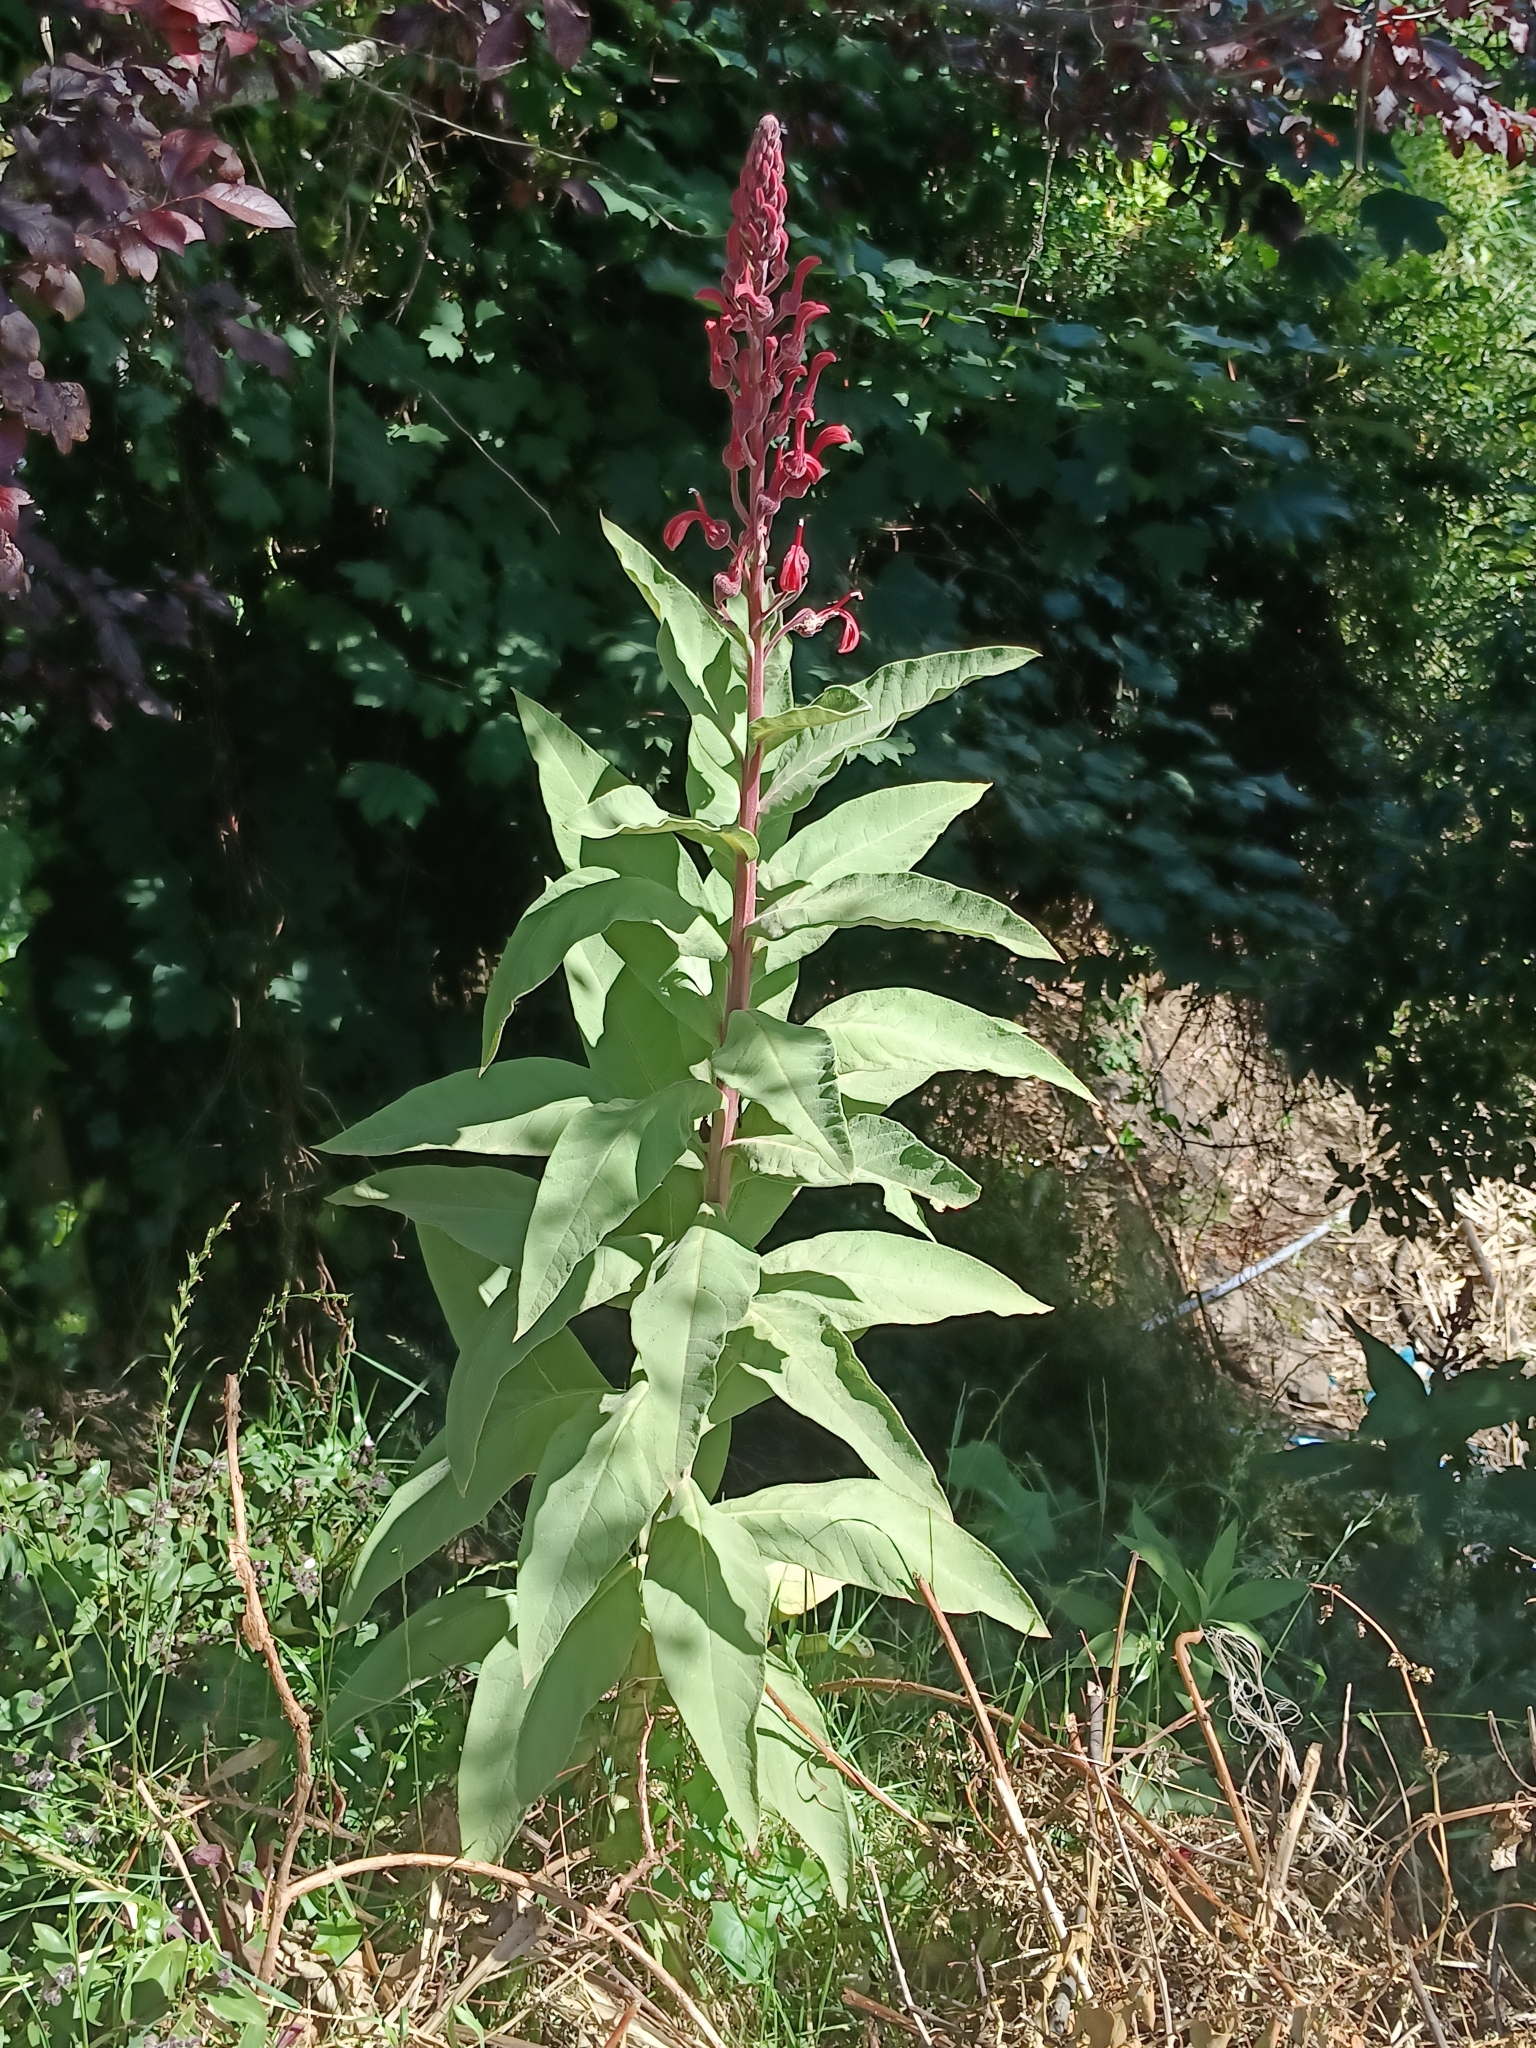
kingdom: Plantae
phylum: Tracheophyta
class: Magnoliopsida
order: Asterales
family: Campanulaceae
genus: Lobelia
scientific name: Lobelia tupa
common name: Devil's-tobacco
